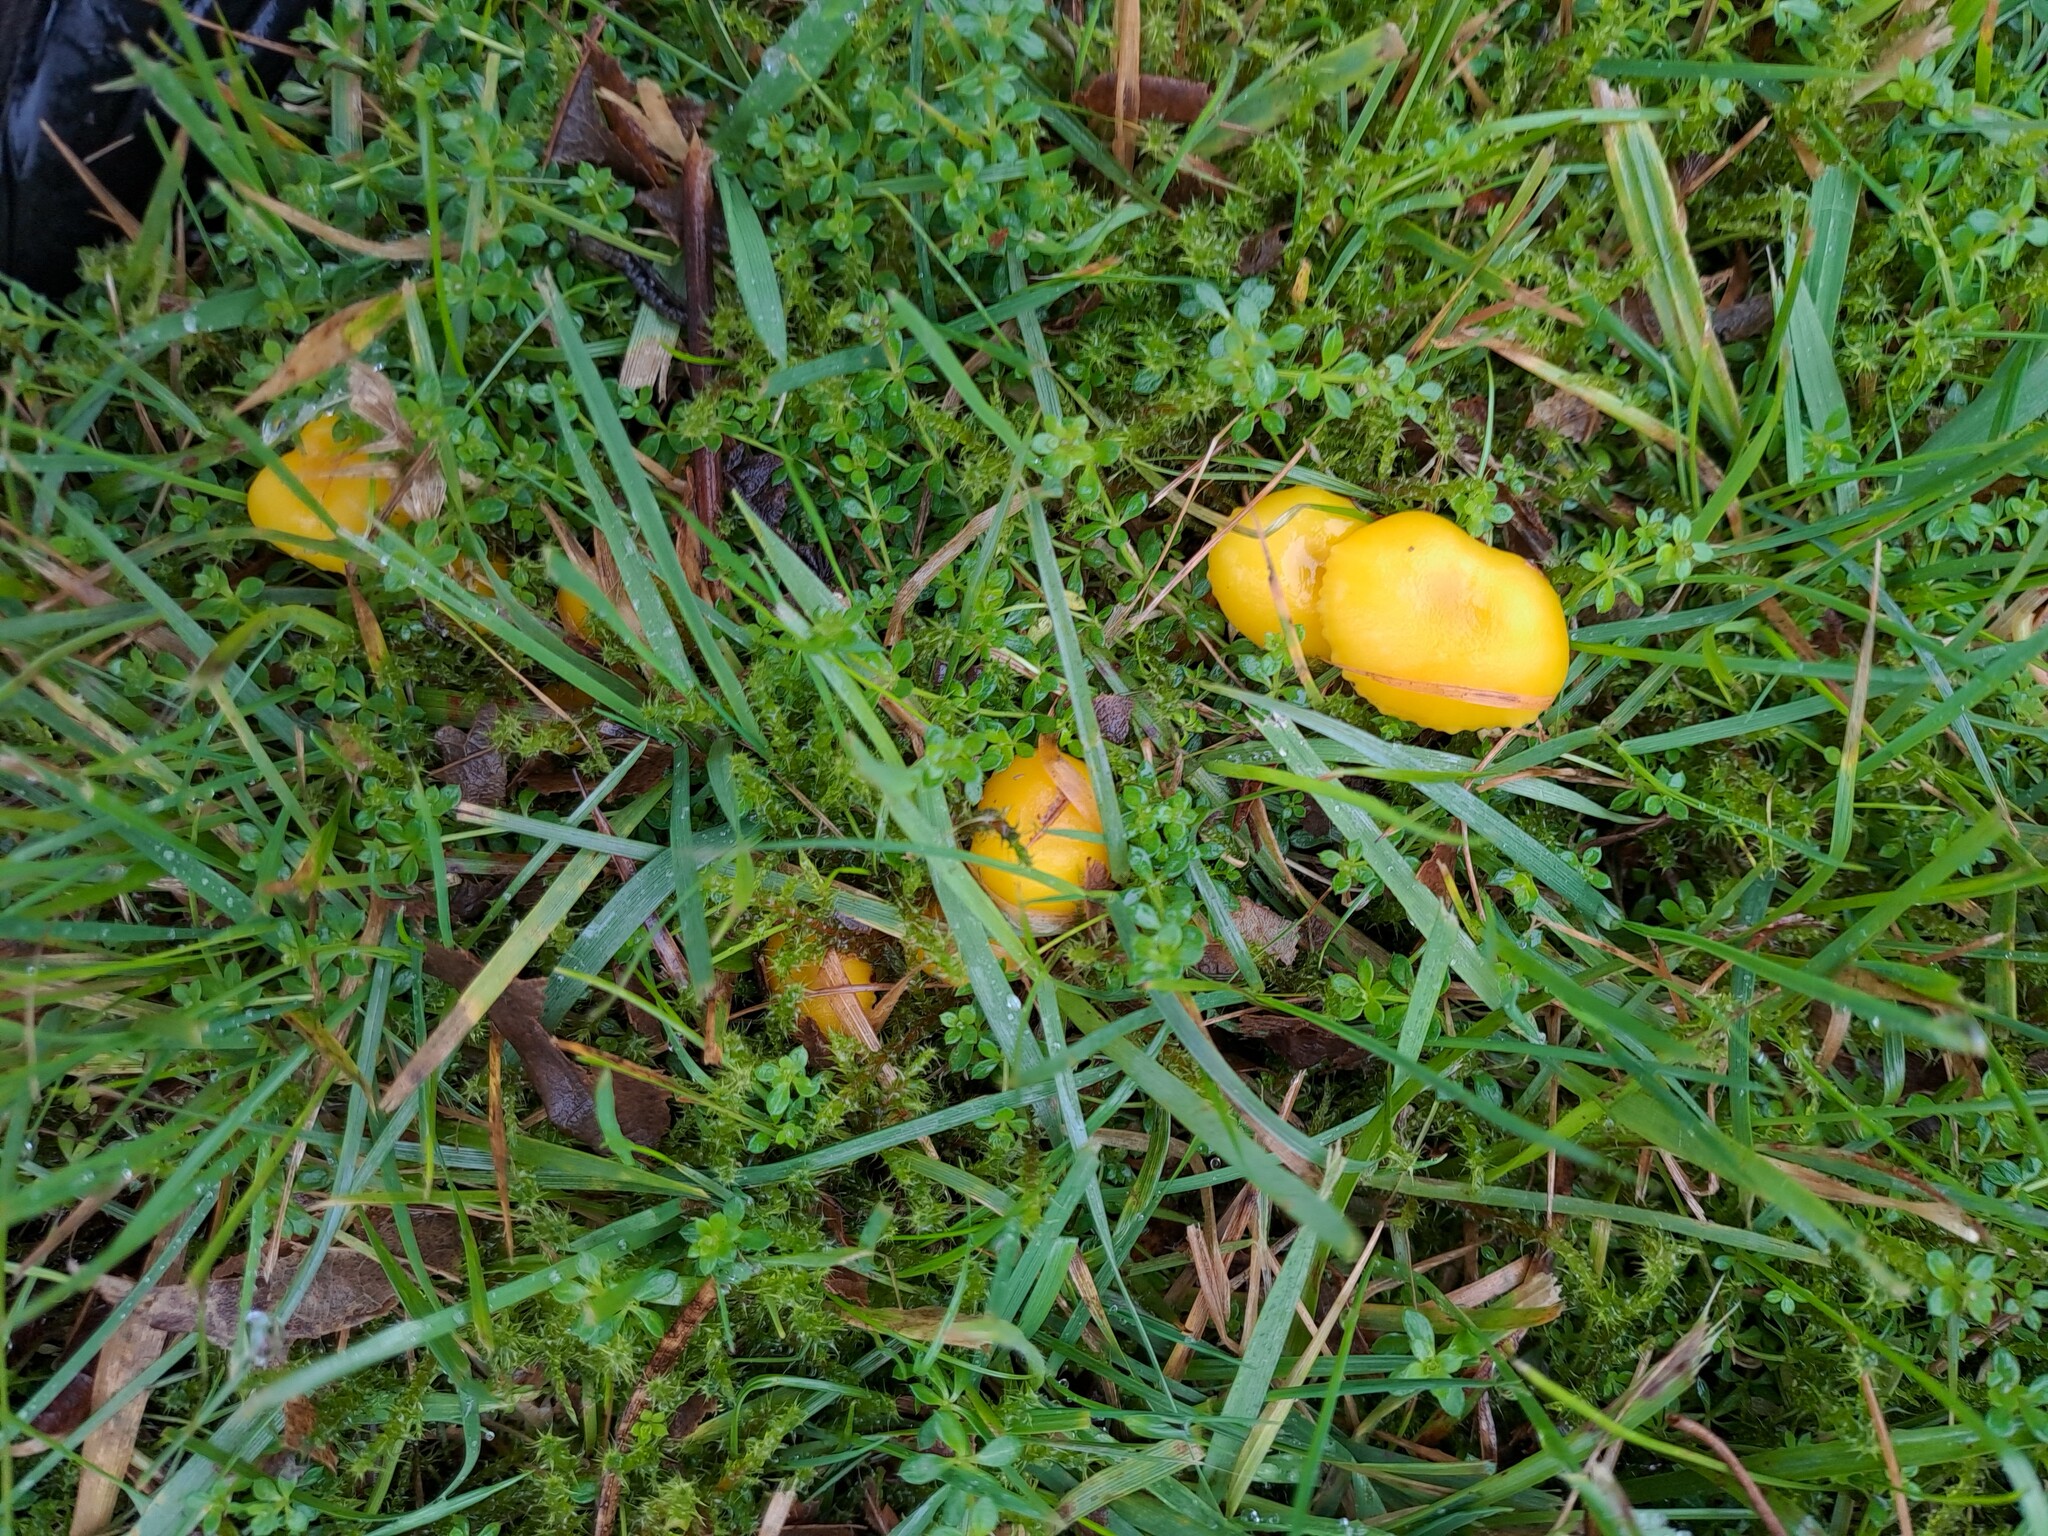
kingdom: Fungi
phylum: Basidiomycota
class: Agaricomycetes
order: Agaricales
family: Hygrophoraceae
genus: Hygrocybe
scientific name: Hygrocybe ceracea
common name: Butter waxcap
